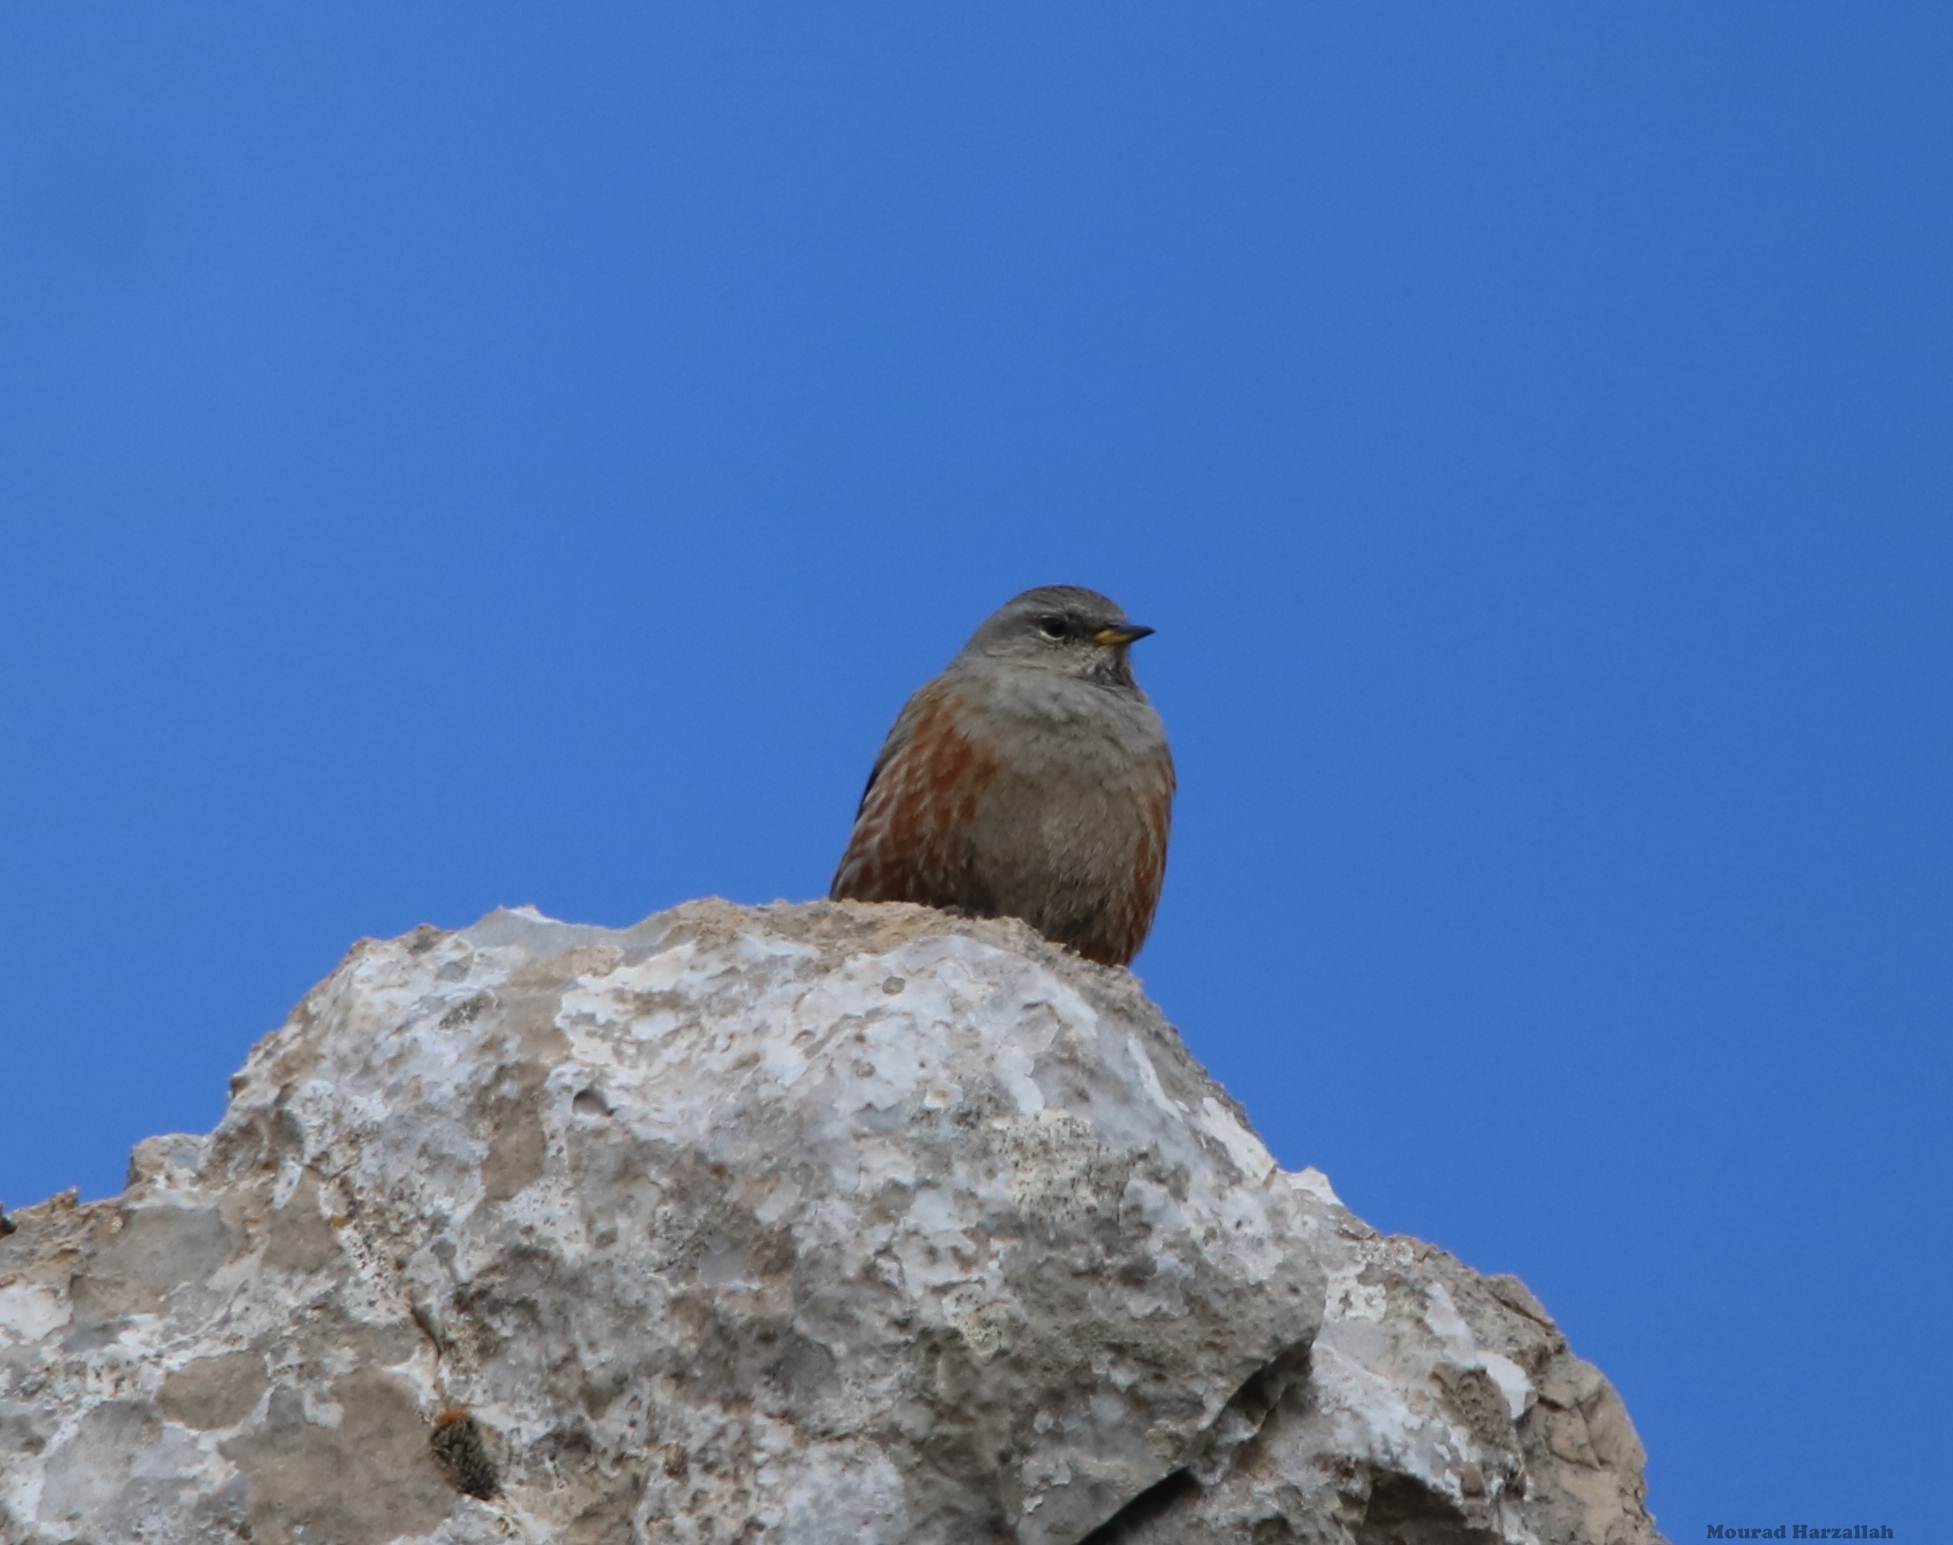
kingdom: Animalia
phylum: Chordata
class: Aves
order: Passeriformes
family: Prunellidae
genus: Prunella
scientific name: Prunella collaris
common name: Alpine accentor
